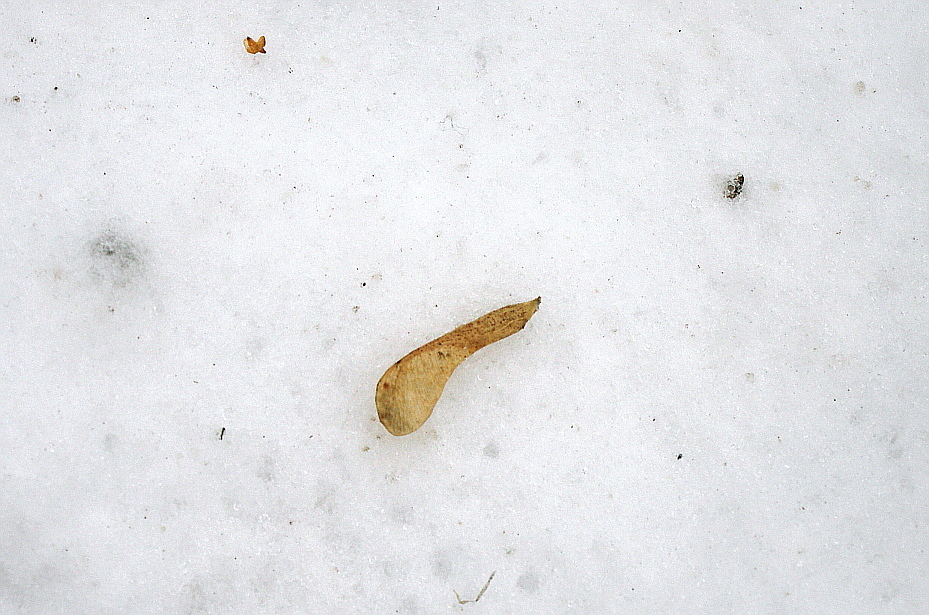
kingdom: Plantae
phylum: Tracheophyta
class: Magnoliopsida
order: Sapindales
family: Sapindaceae
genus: Acer
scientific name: Acer negundo
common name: Ashleaf maple
